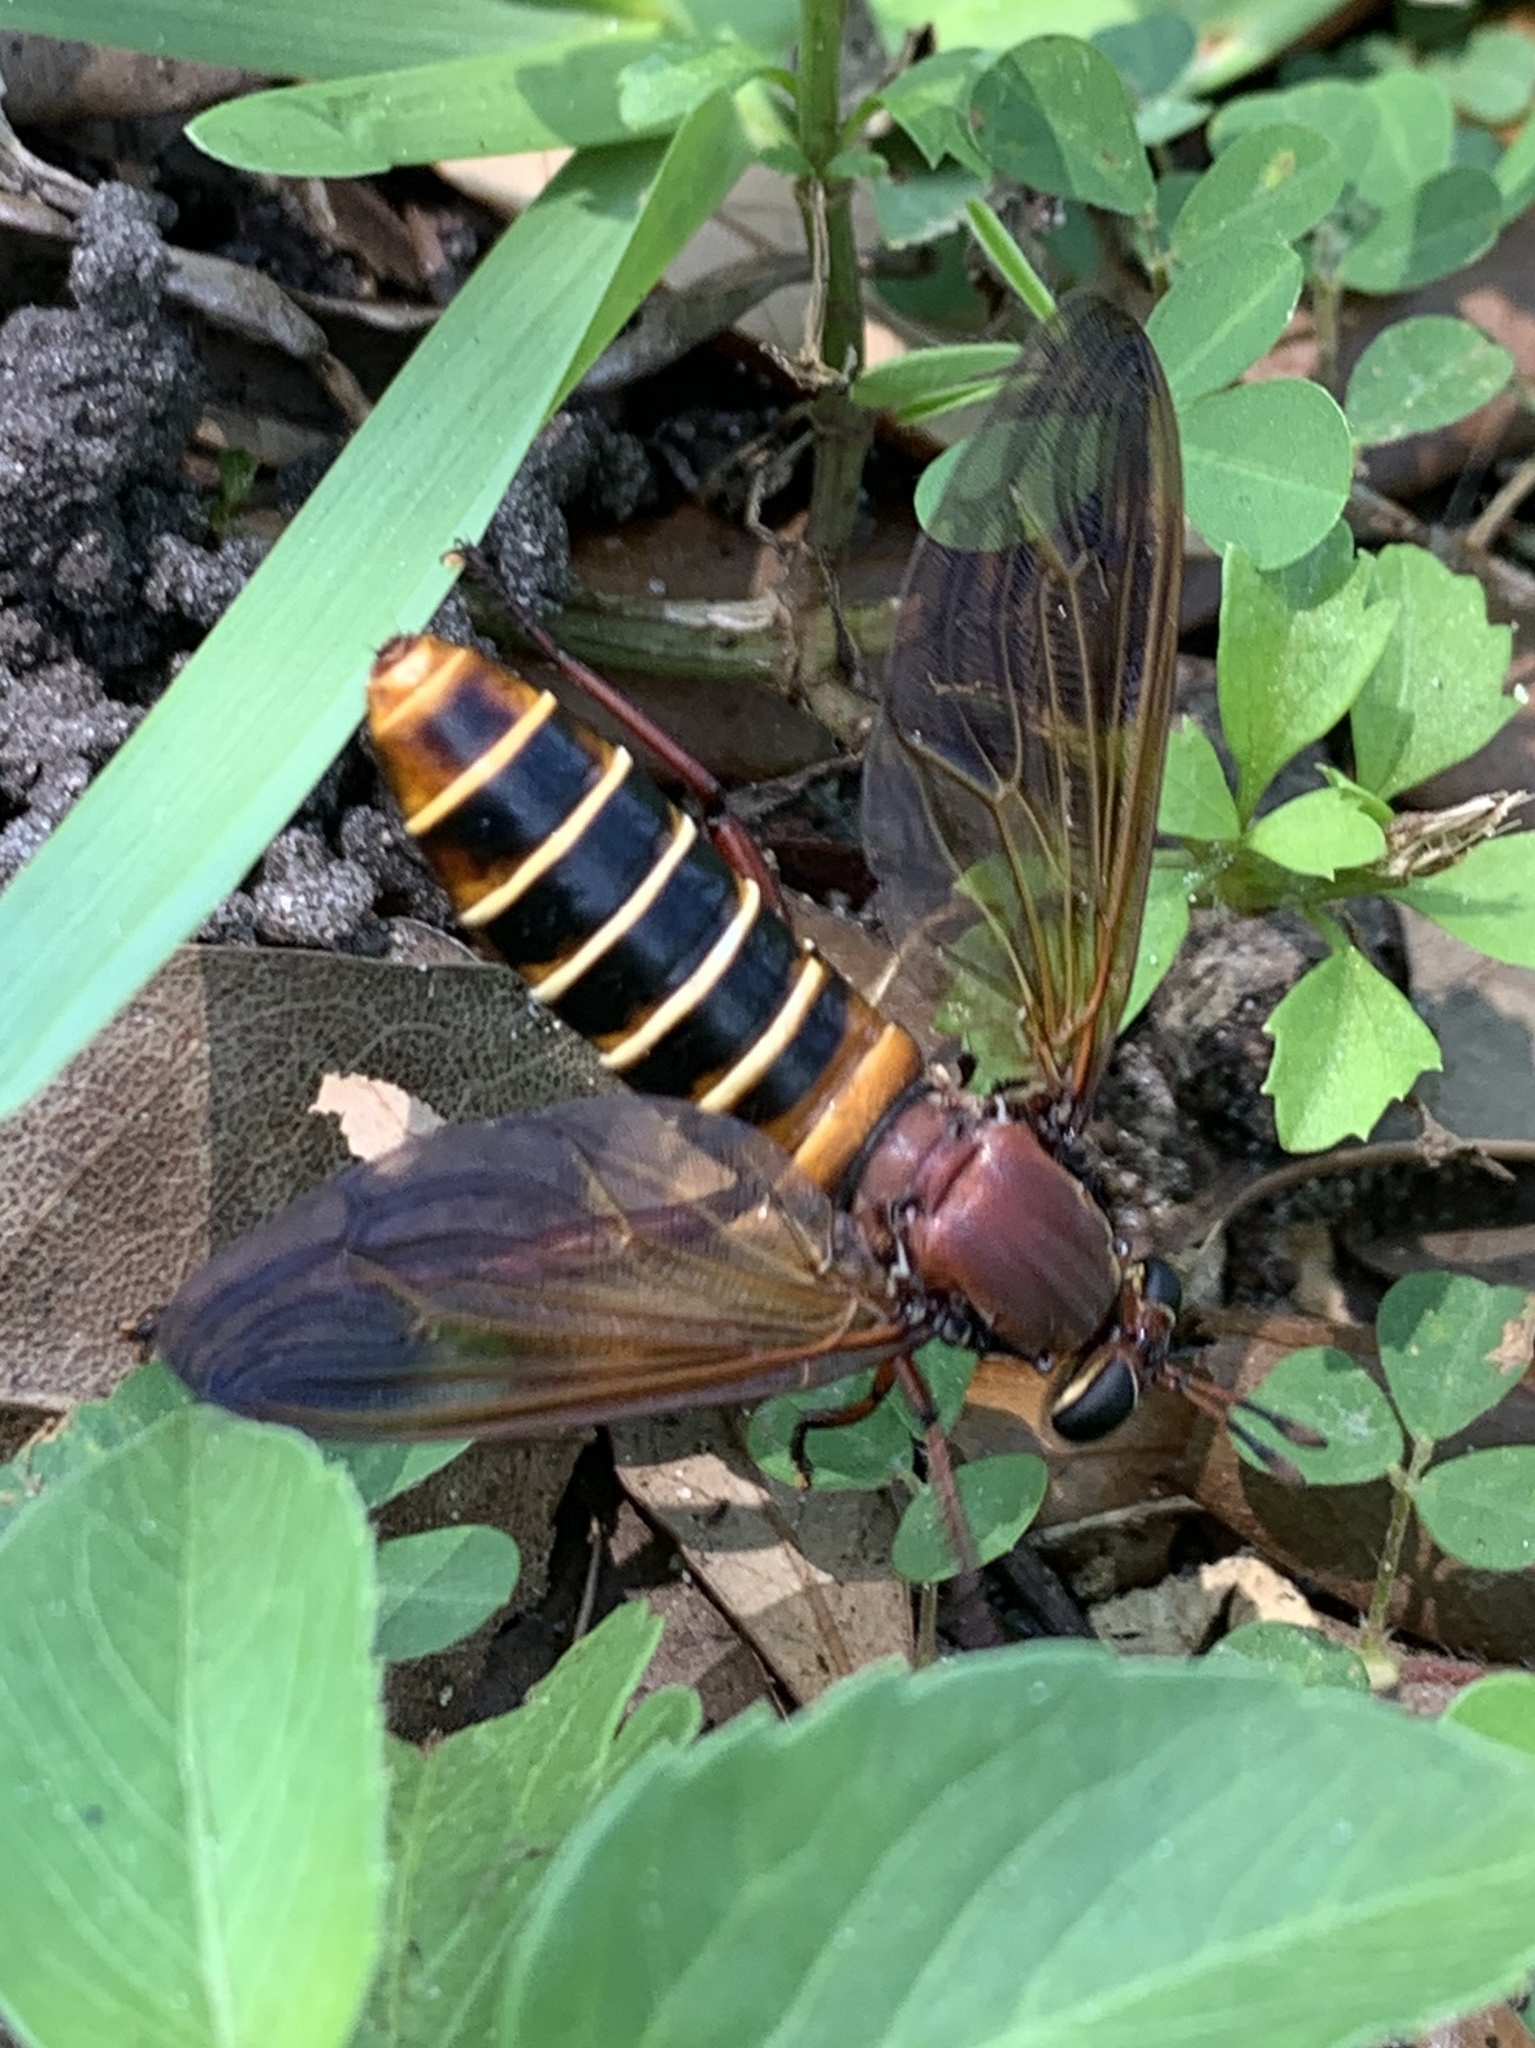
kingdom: Animalia
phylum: Arthropoda
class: Insecta
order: Diptera
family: Mydidae
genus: Mydas
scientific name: Mydas maculiventris
